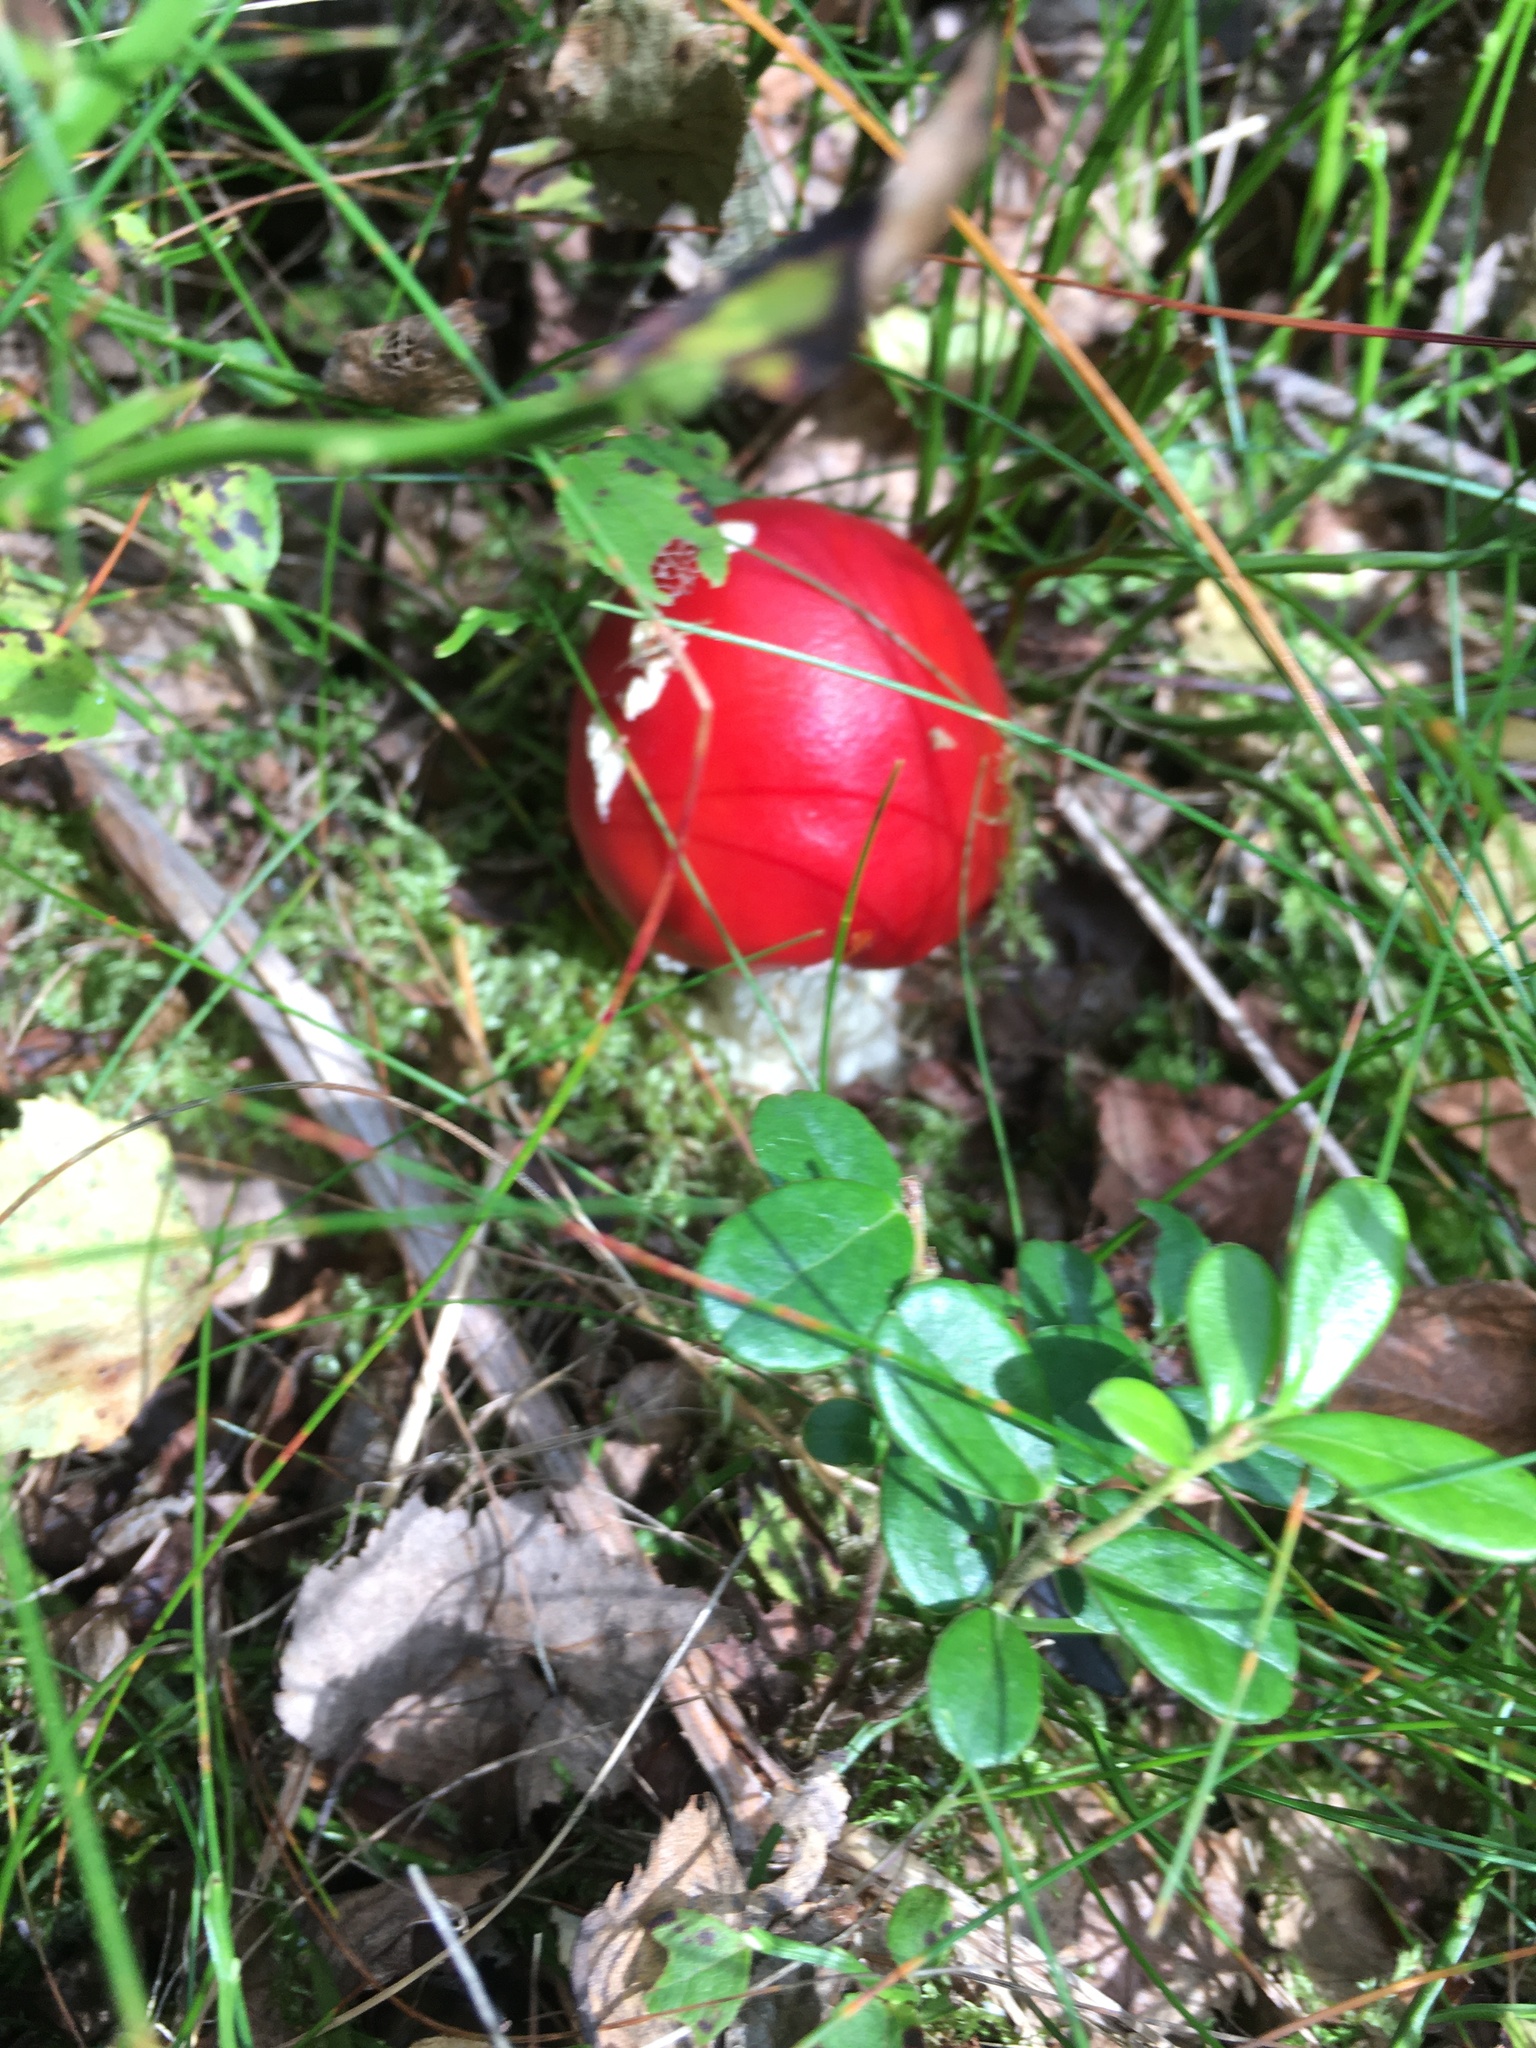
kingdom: Fungi
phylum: Basidiomycota
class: Agaricomycetes
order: Agaricales
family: Amanitaceae
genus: Amanita
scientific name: Amanita muscaria
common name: Fly agaric
